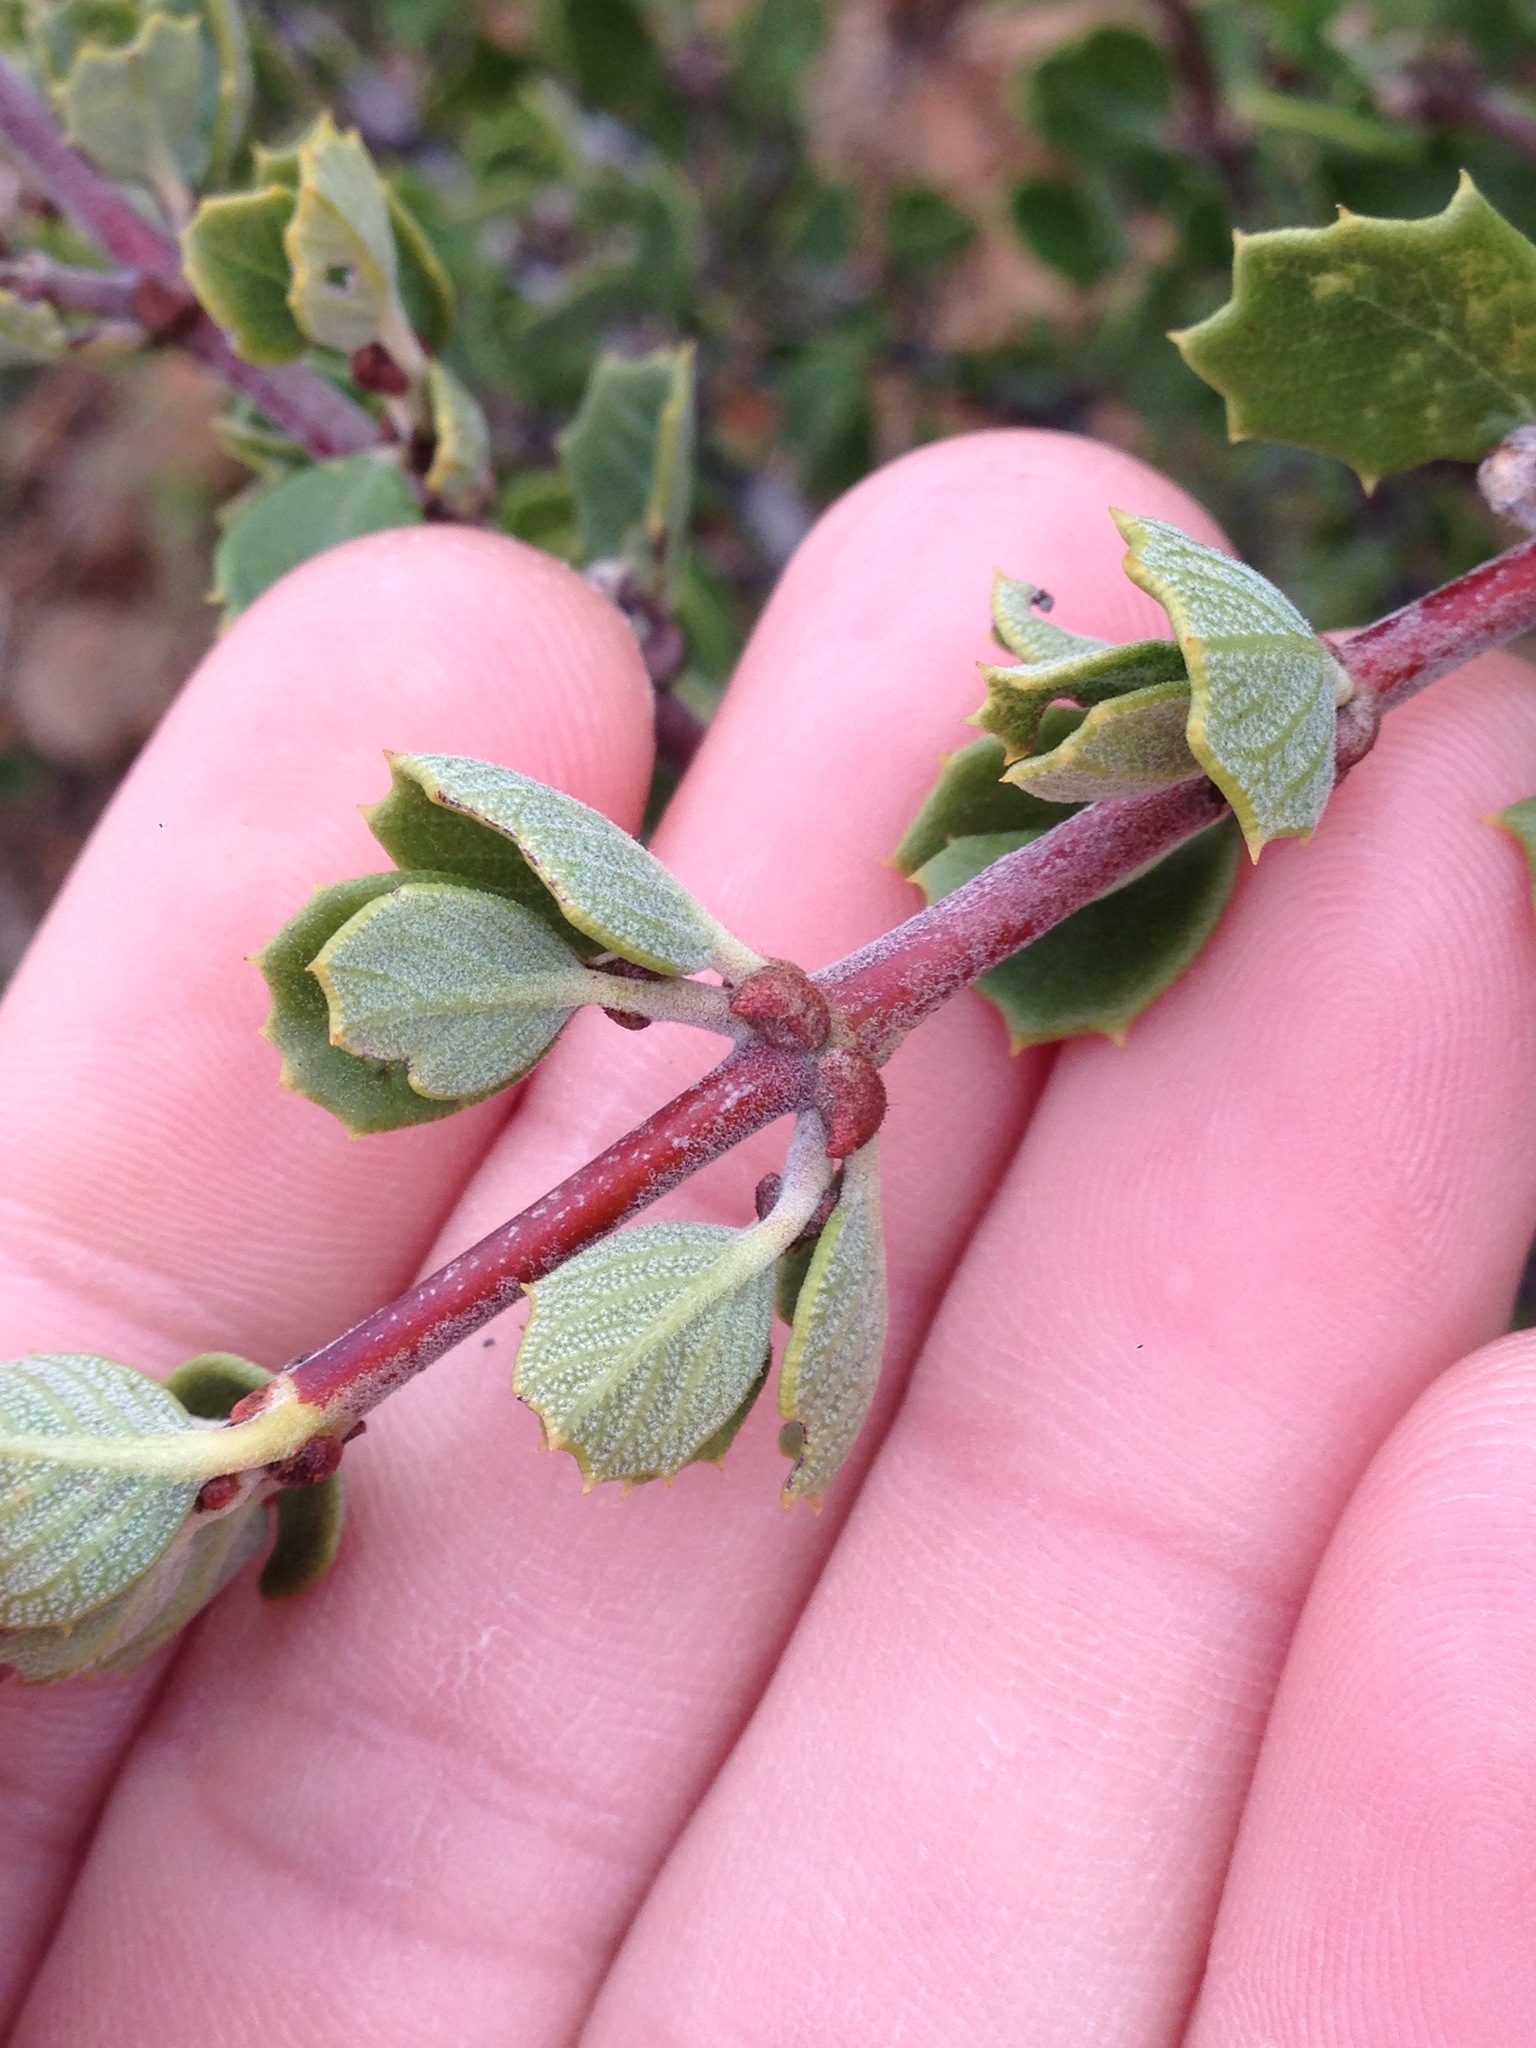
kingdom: Plantae
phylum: Tracheophyta
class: Magnoliopsida
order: Rosales
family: Rhamnaceae
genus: Ceanothus
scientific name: Ceanothus perplexans
